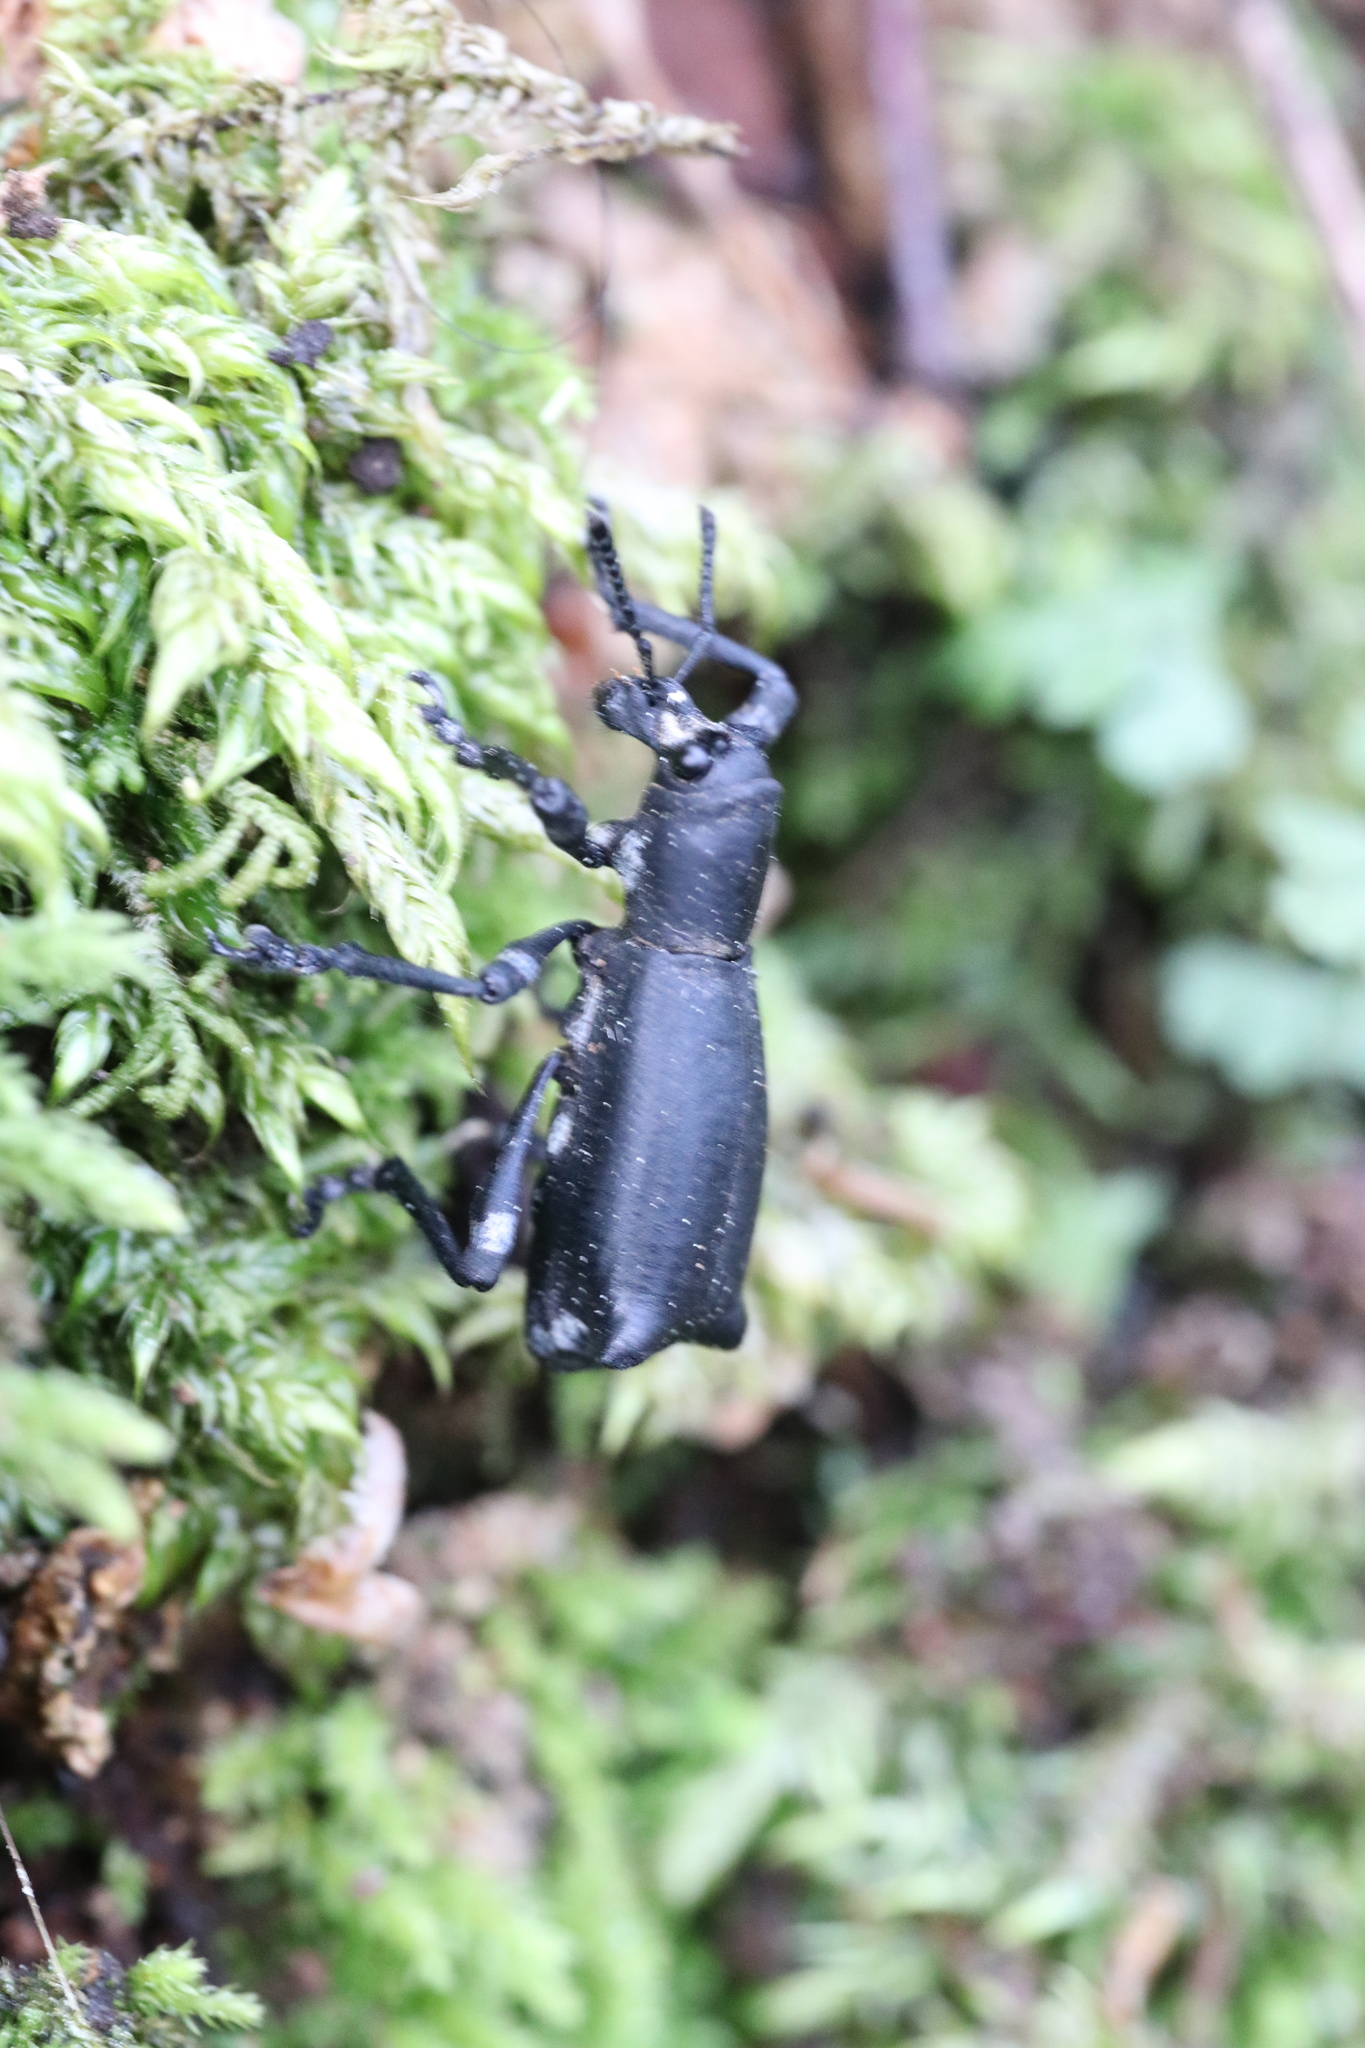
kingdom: Animalia
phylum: Arthropoda
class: Insecta
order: Coleoptera
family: Curculionidae
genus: Aegorhinus
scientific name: Aegorhinus
